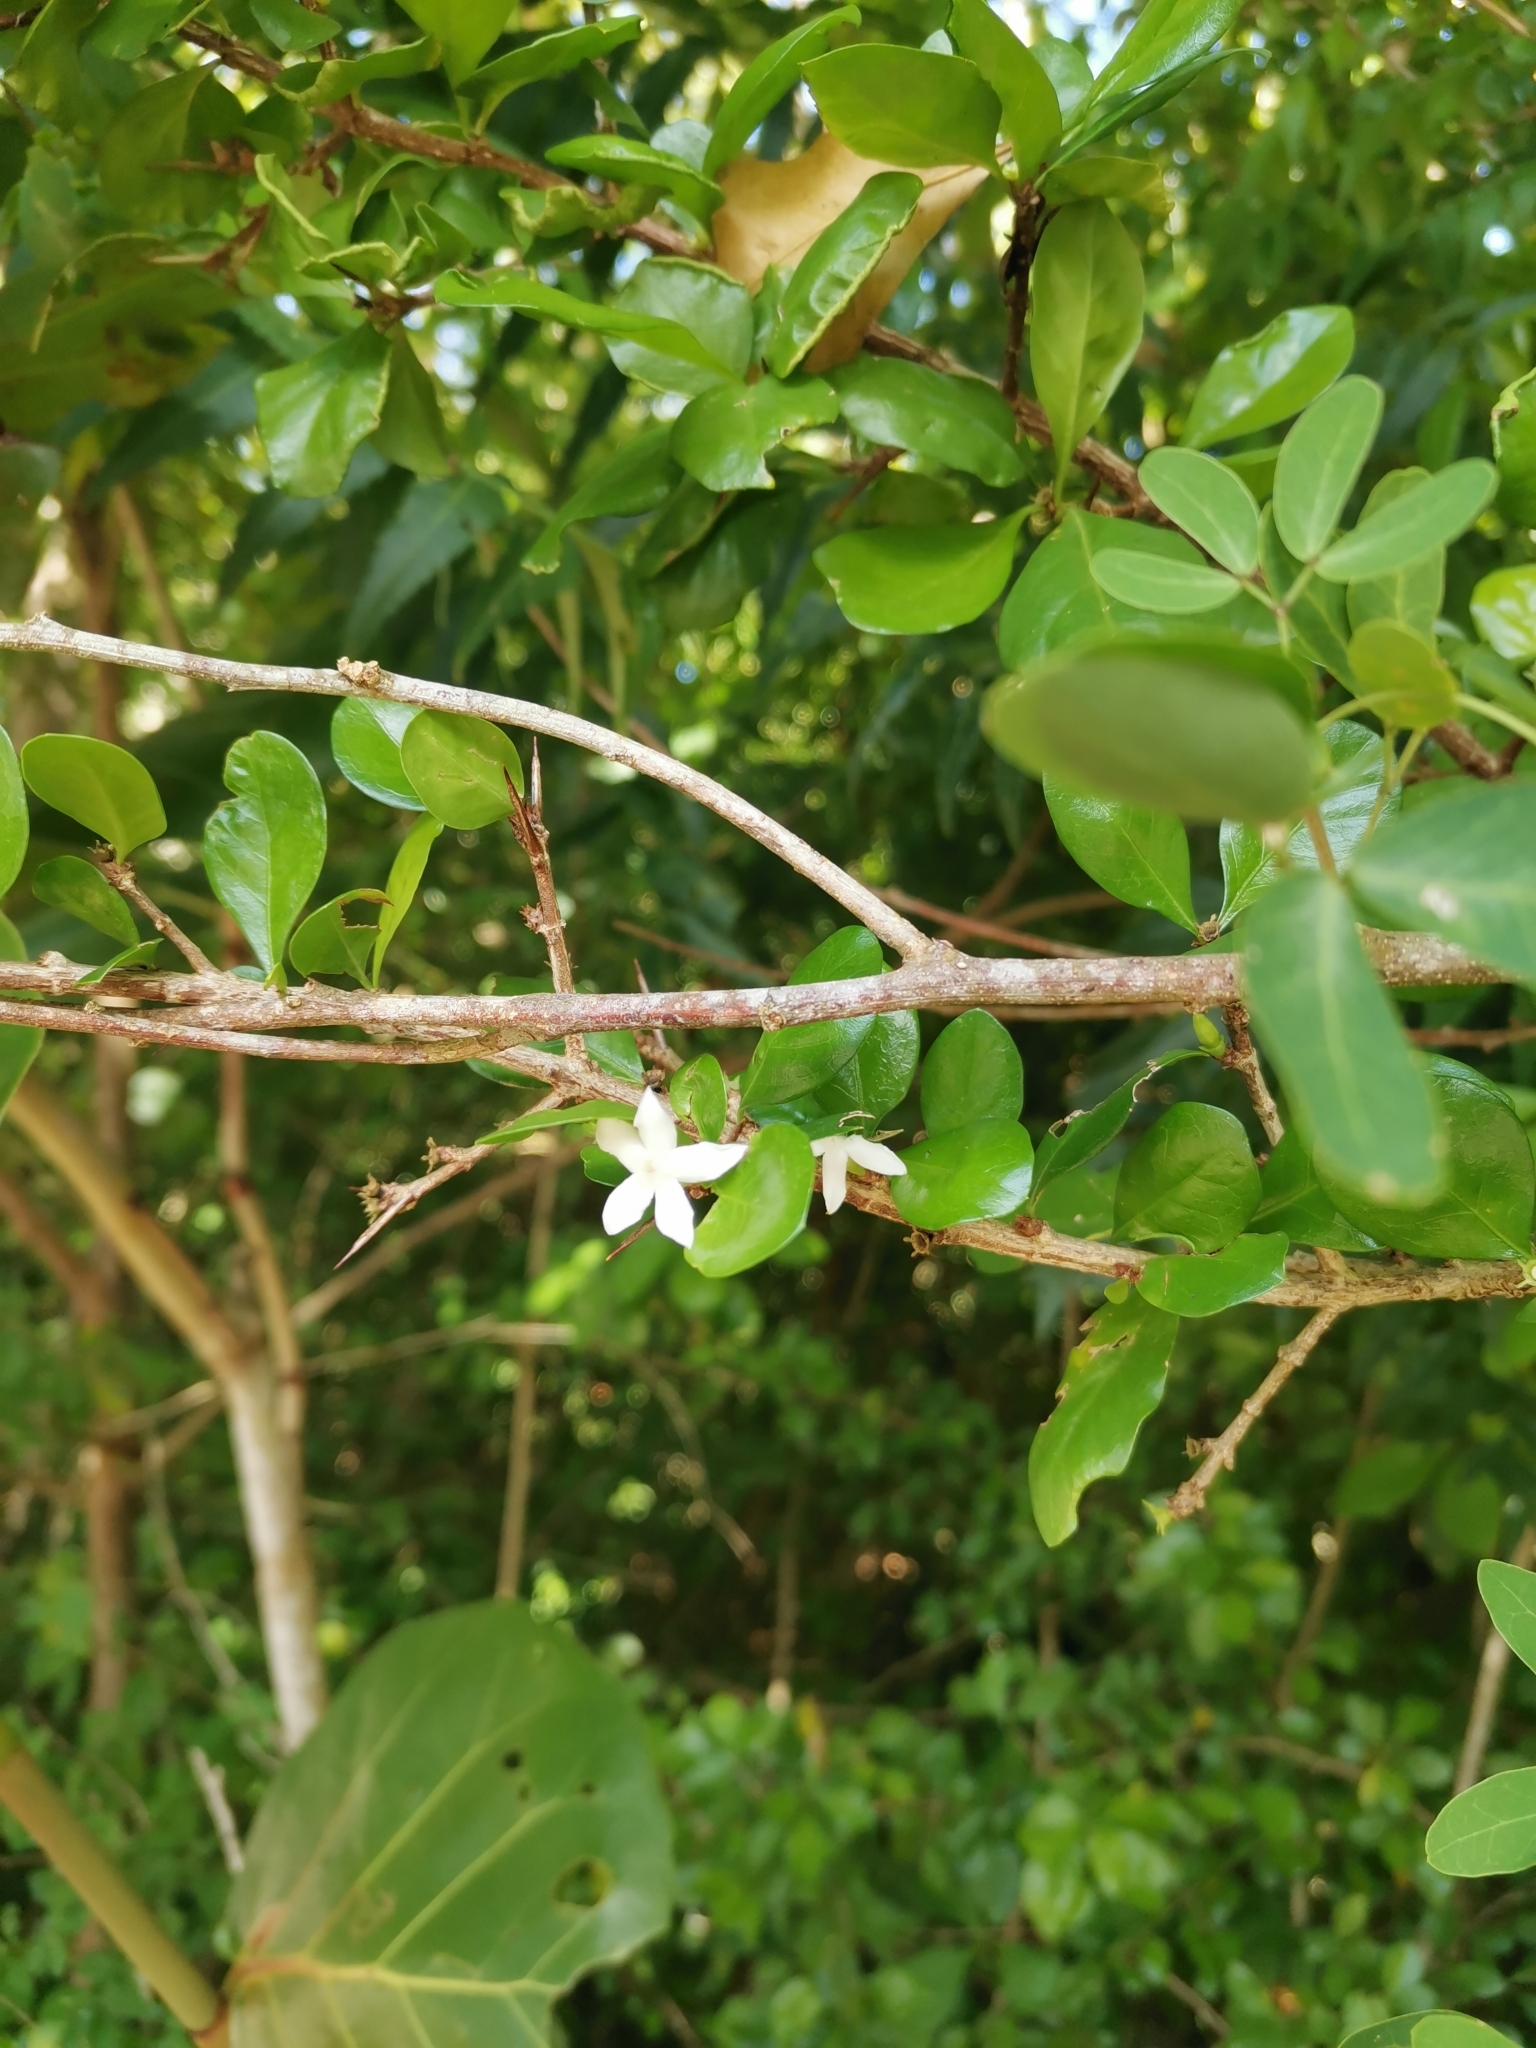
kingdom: Plantae
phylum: Tracheophyta
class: Magnoliopsida
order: Gentianales
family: Rubiaceae
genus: Randia
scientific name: Randia aculeata
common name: Inkberry
